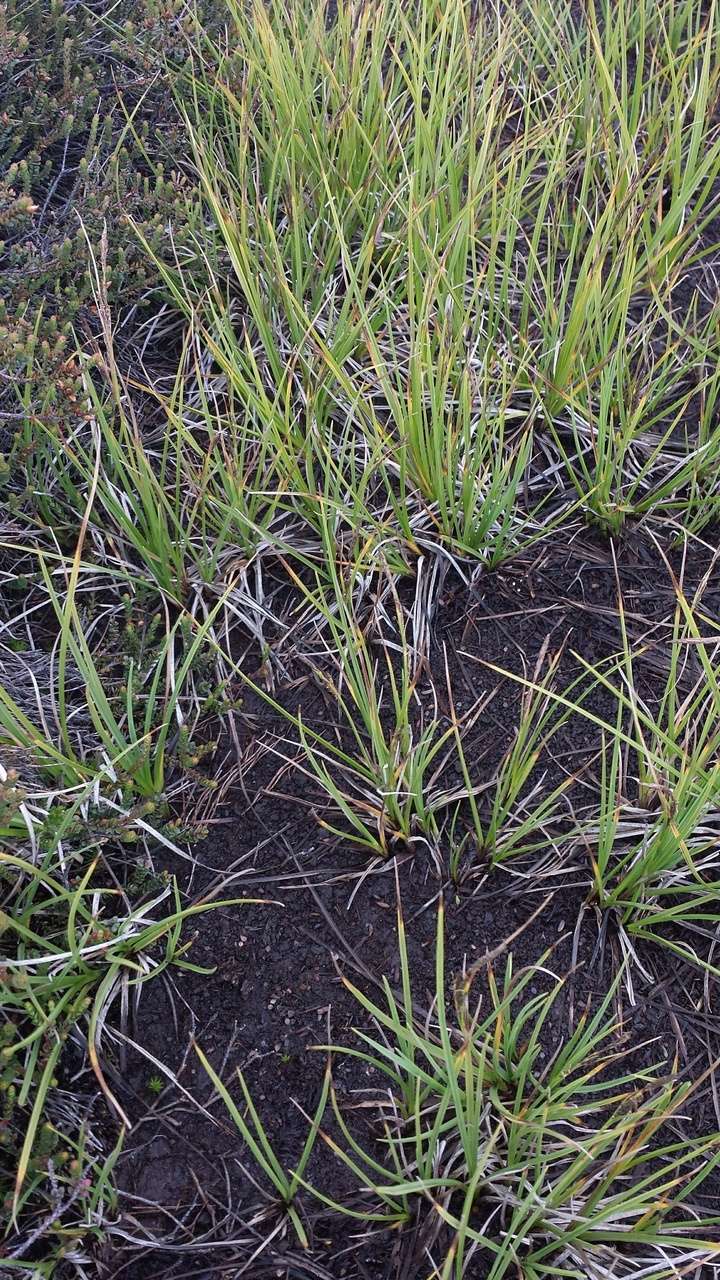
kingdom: Plantae
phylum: Tracheophyta
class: Liliopsida
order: Poales
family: Cyperaceae
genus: Carex
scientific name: Carex gaudichaudiana
